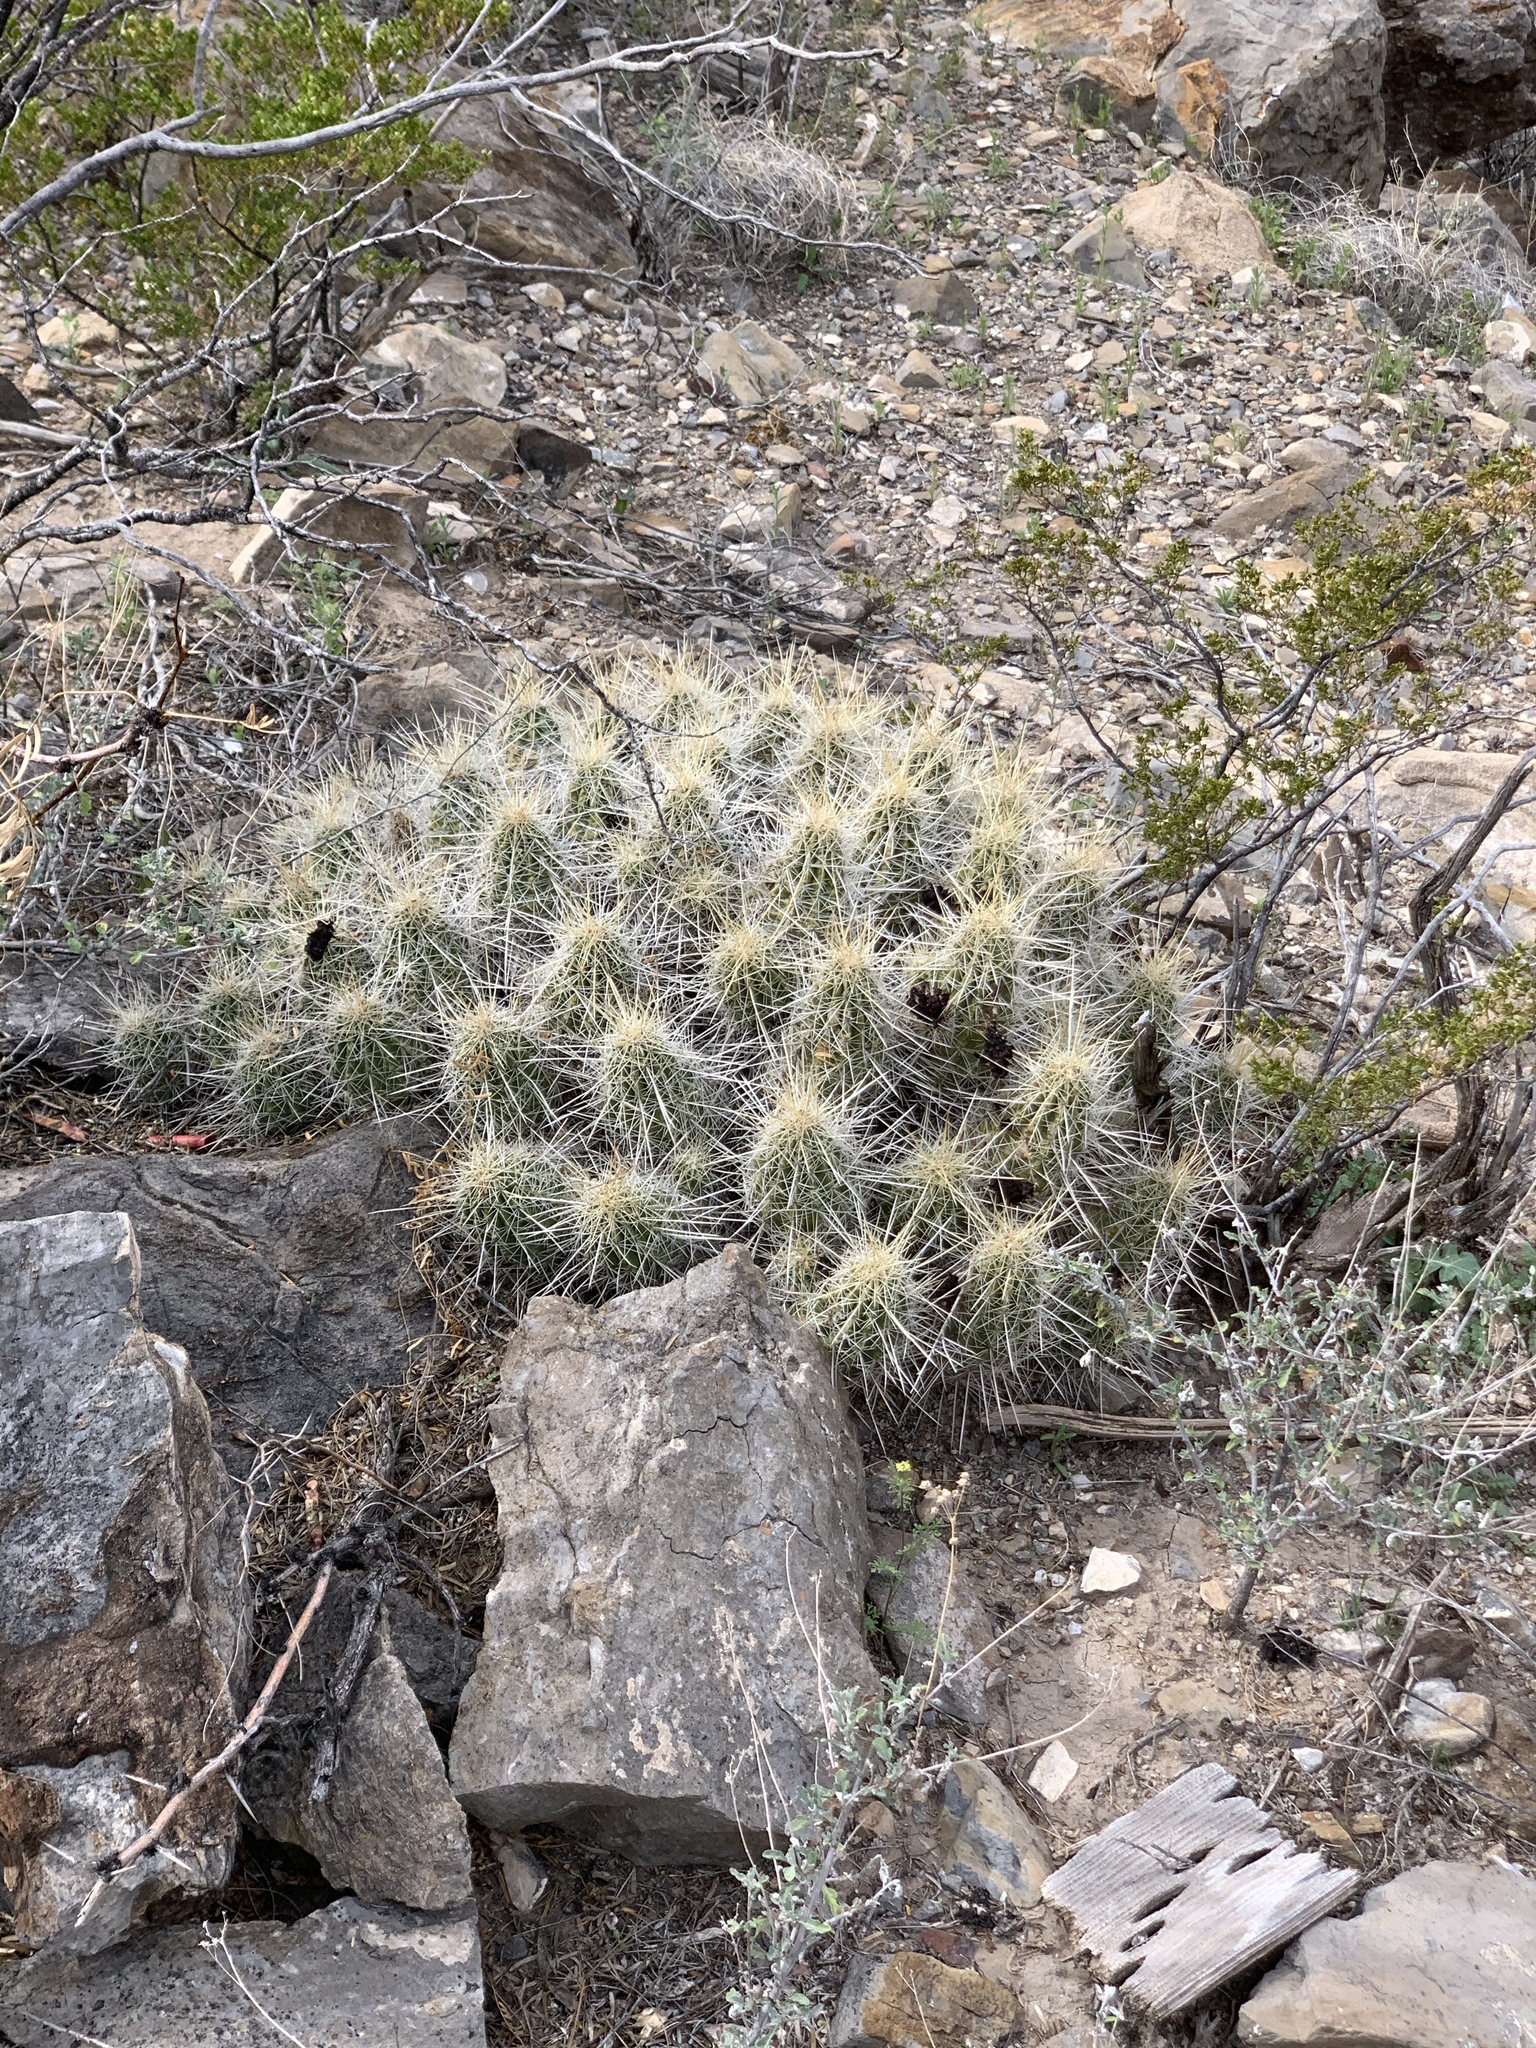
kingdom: Plantae
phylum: Tracheophyta
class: Magnoliopsida
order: Caryophyllales
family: Cactaceae
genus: Echinocereus
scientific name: Echinocereus stramineus
